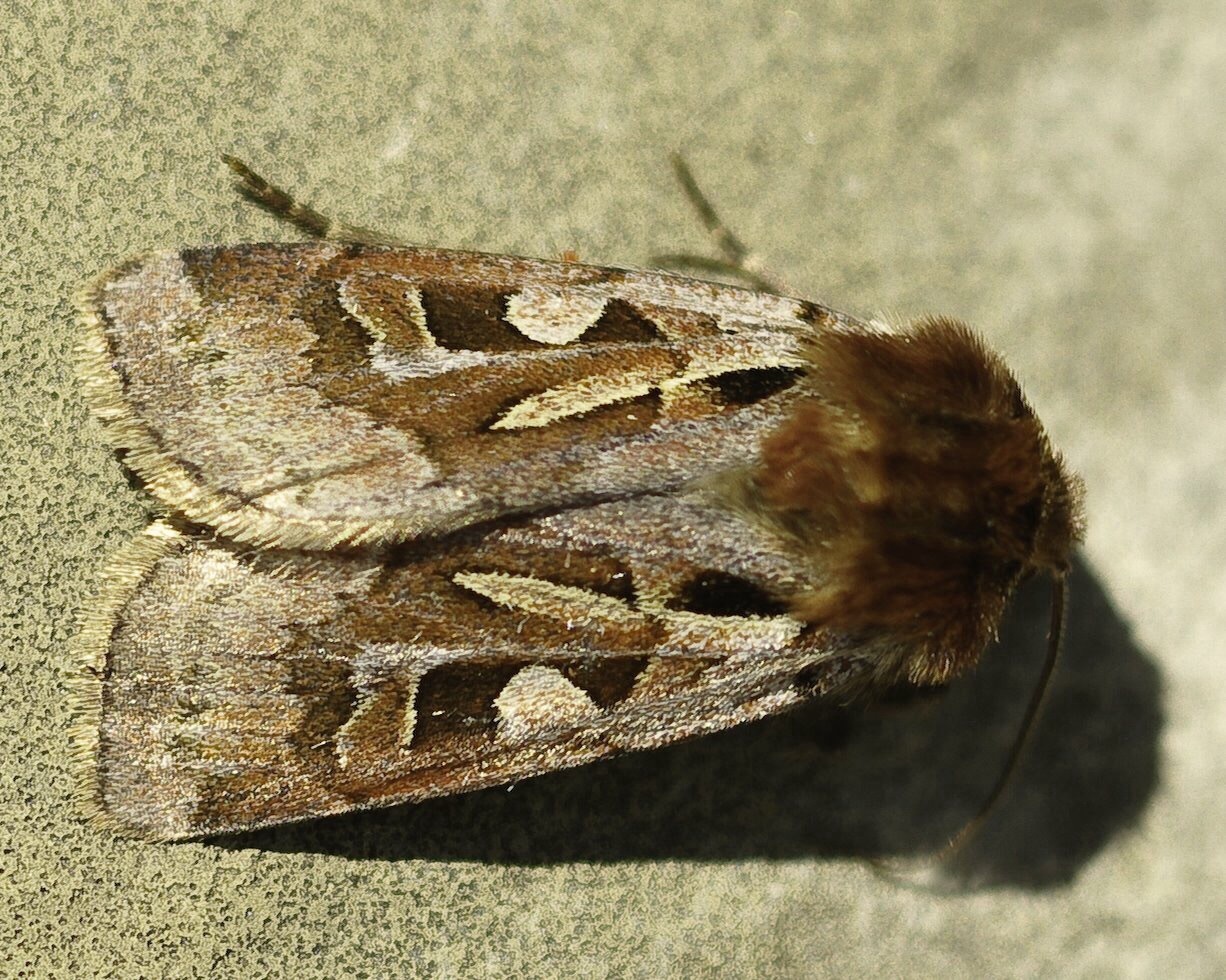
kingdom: Animalia
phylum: Arthropoda
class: Insecta
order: Lepidoptera
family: Noctuidae
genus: Xestia
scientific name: Xestia scropulana
